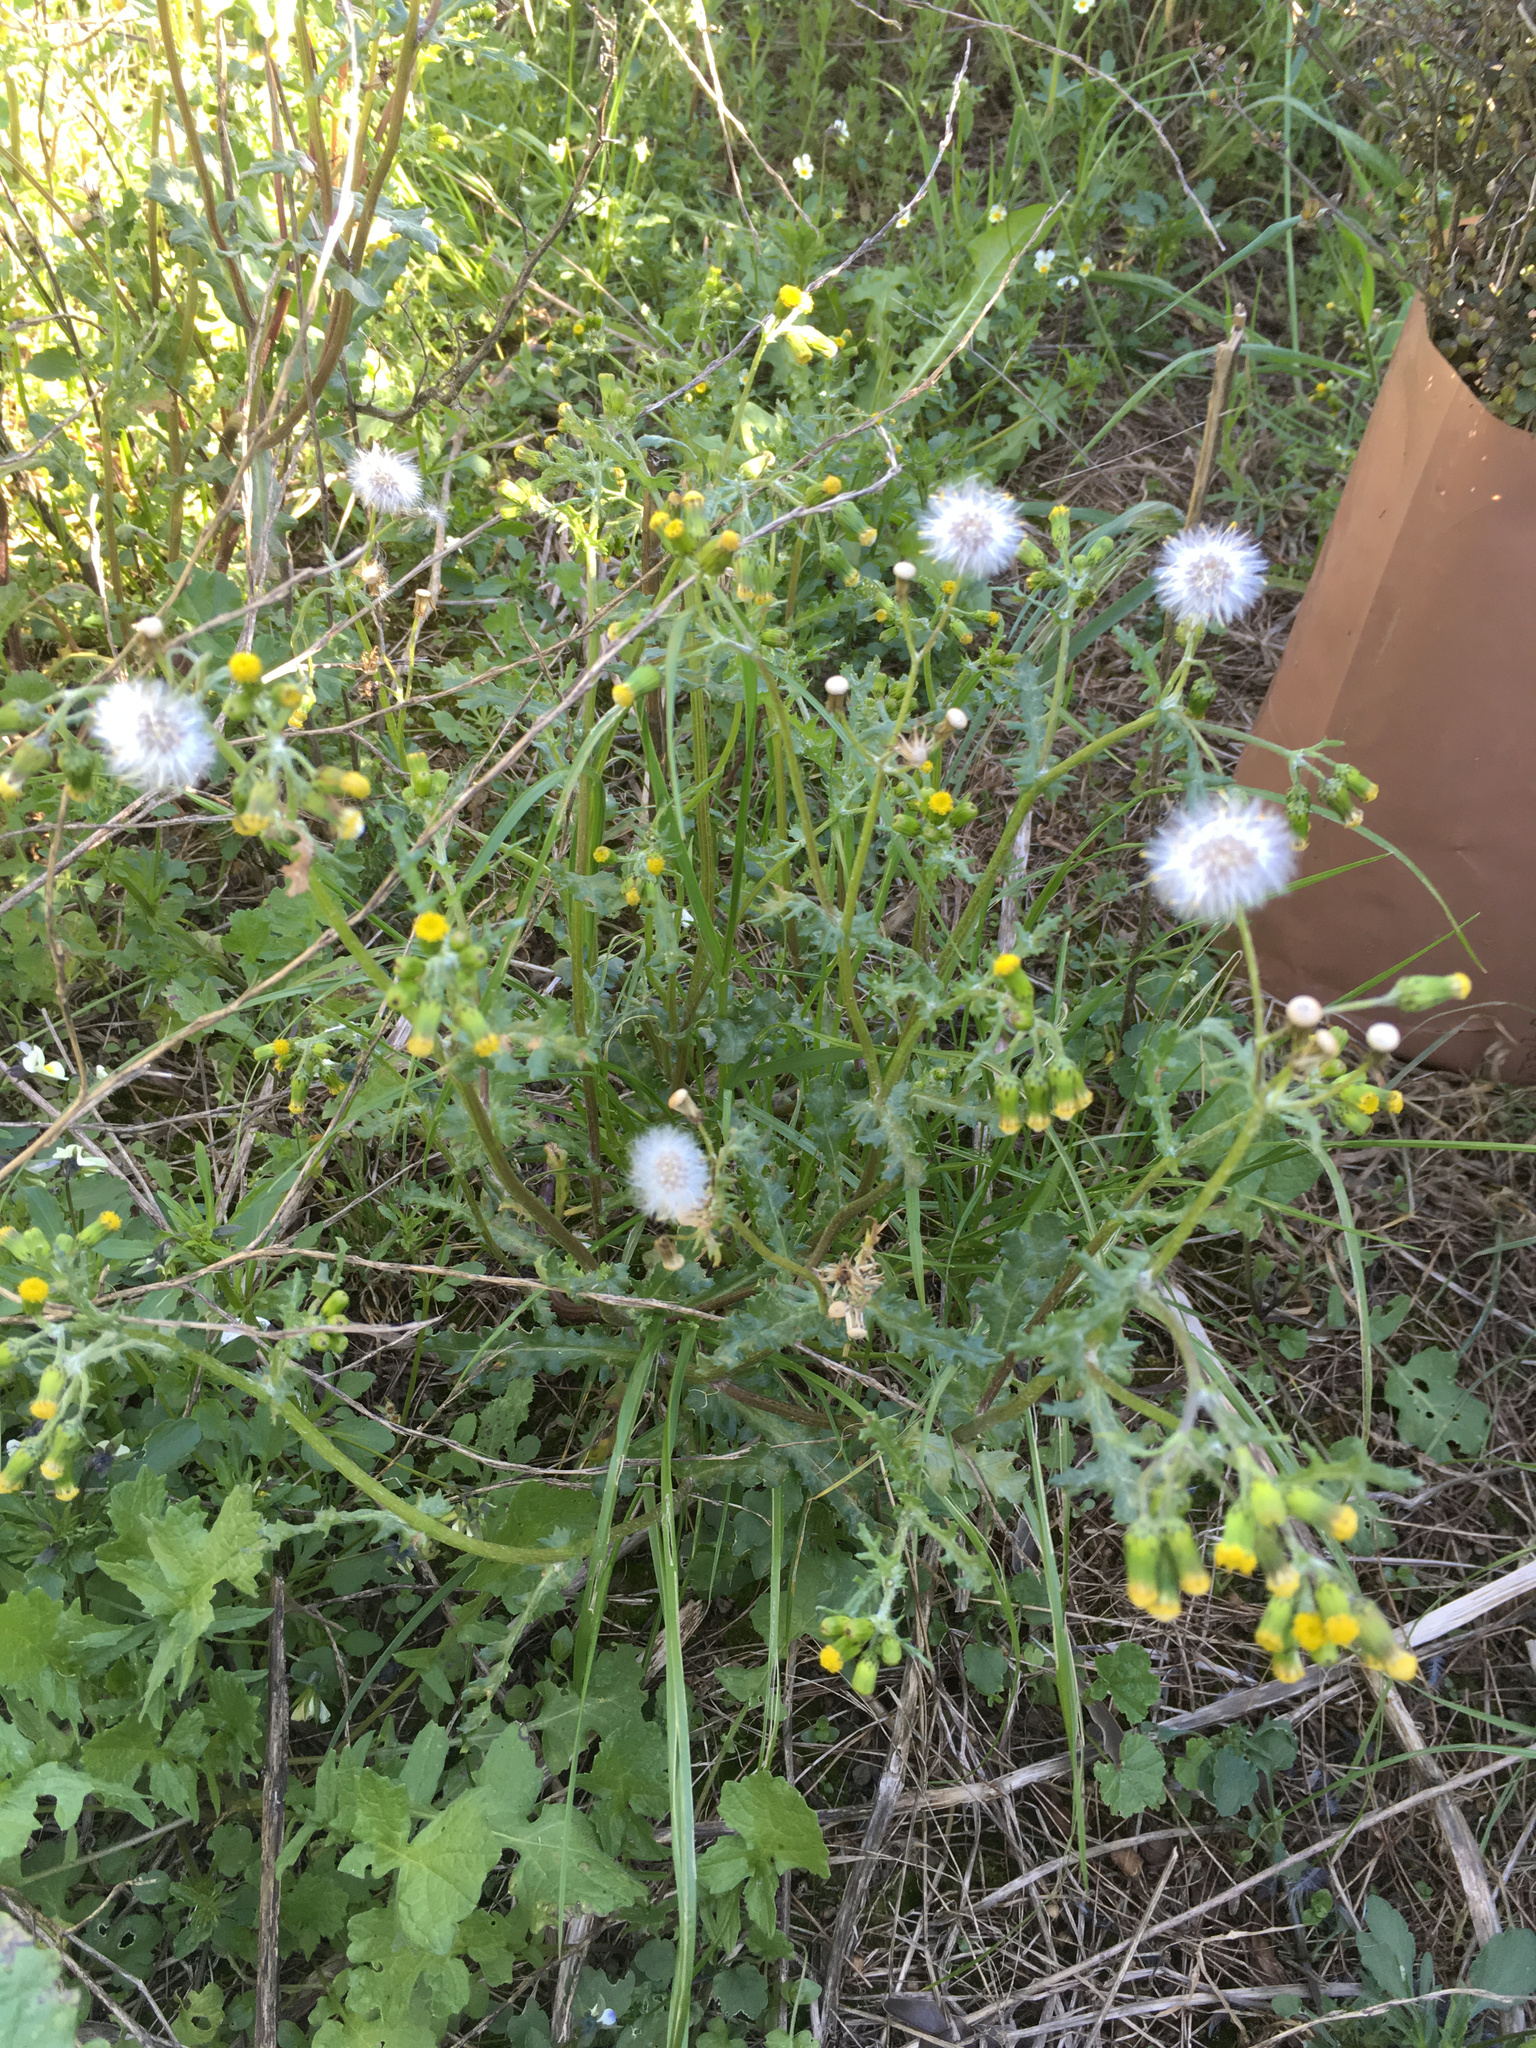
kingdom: Plantae
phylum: Tracheophyta
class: Magnoliopsida
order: Asterales
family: Asteraceae
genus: Senecio
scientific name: Senecio vulgaris
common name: Old-man-in-the-spring
